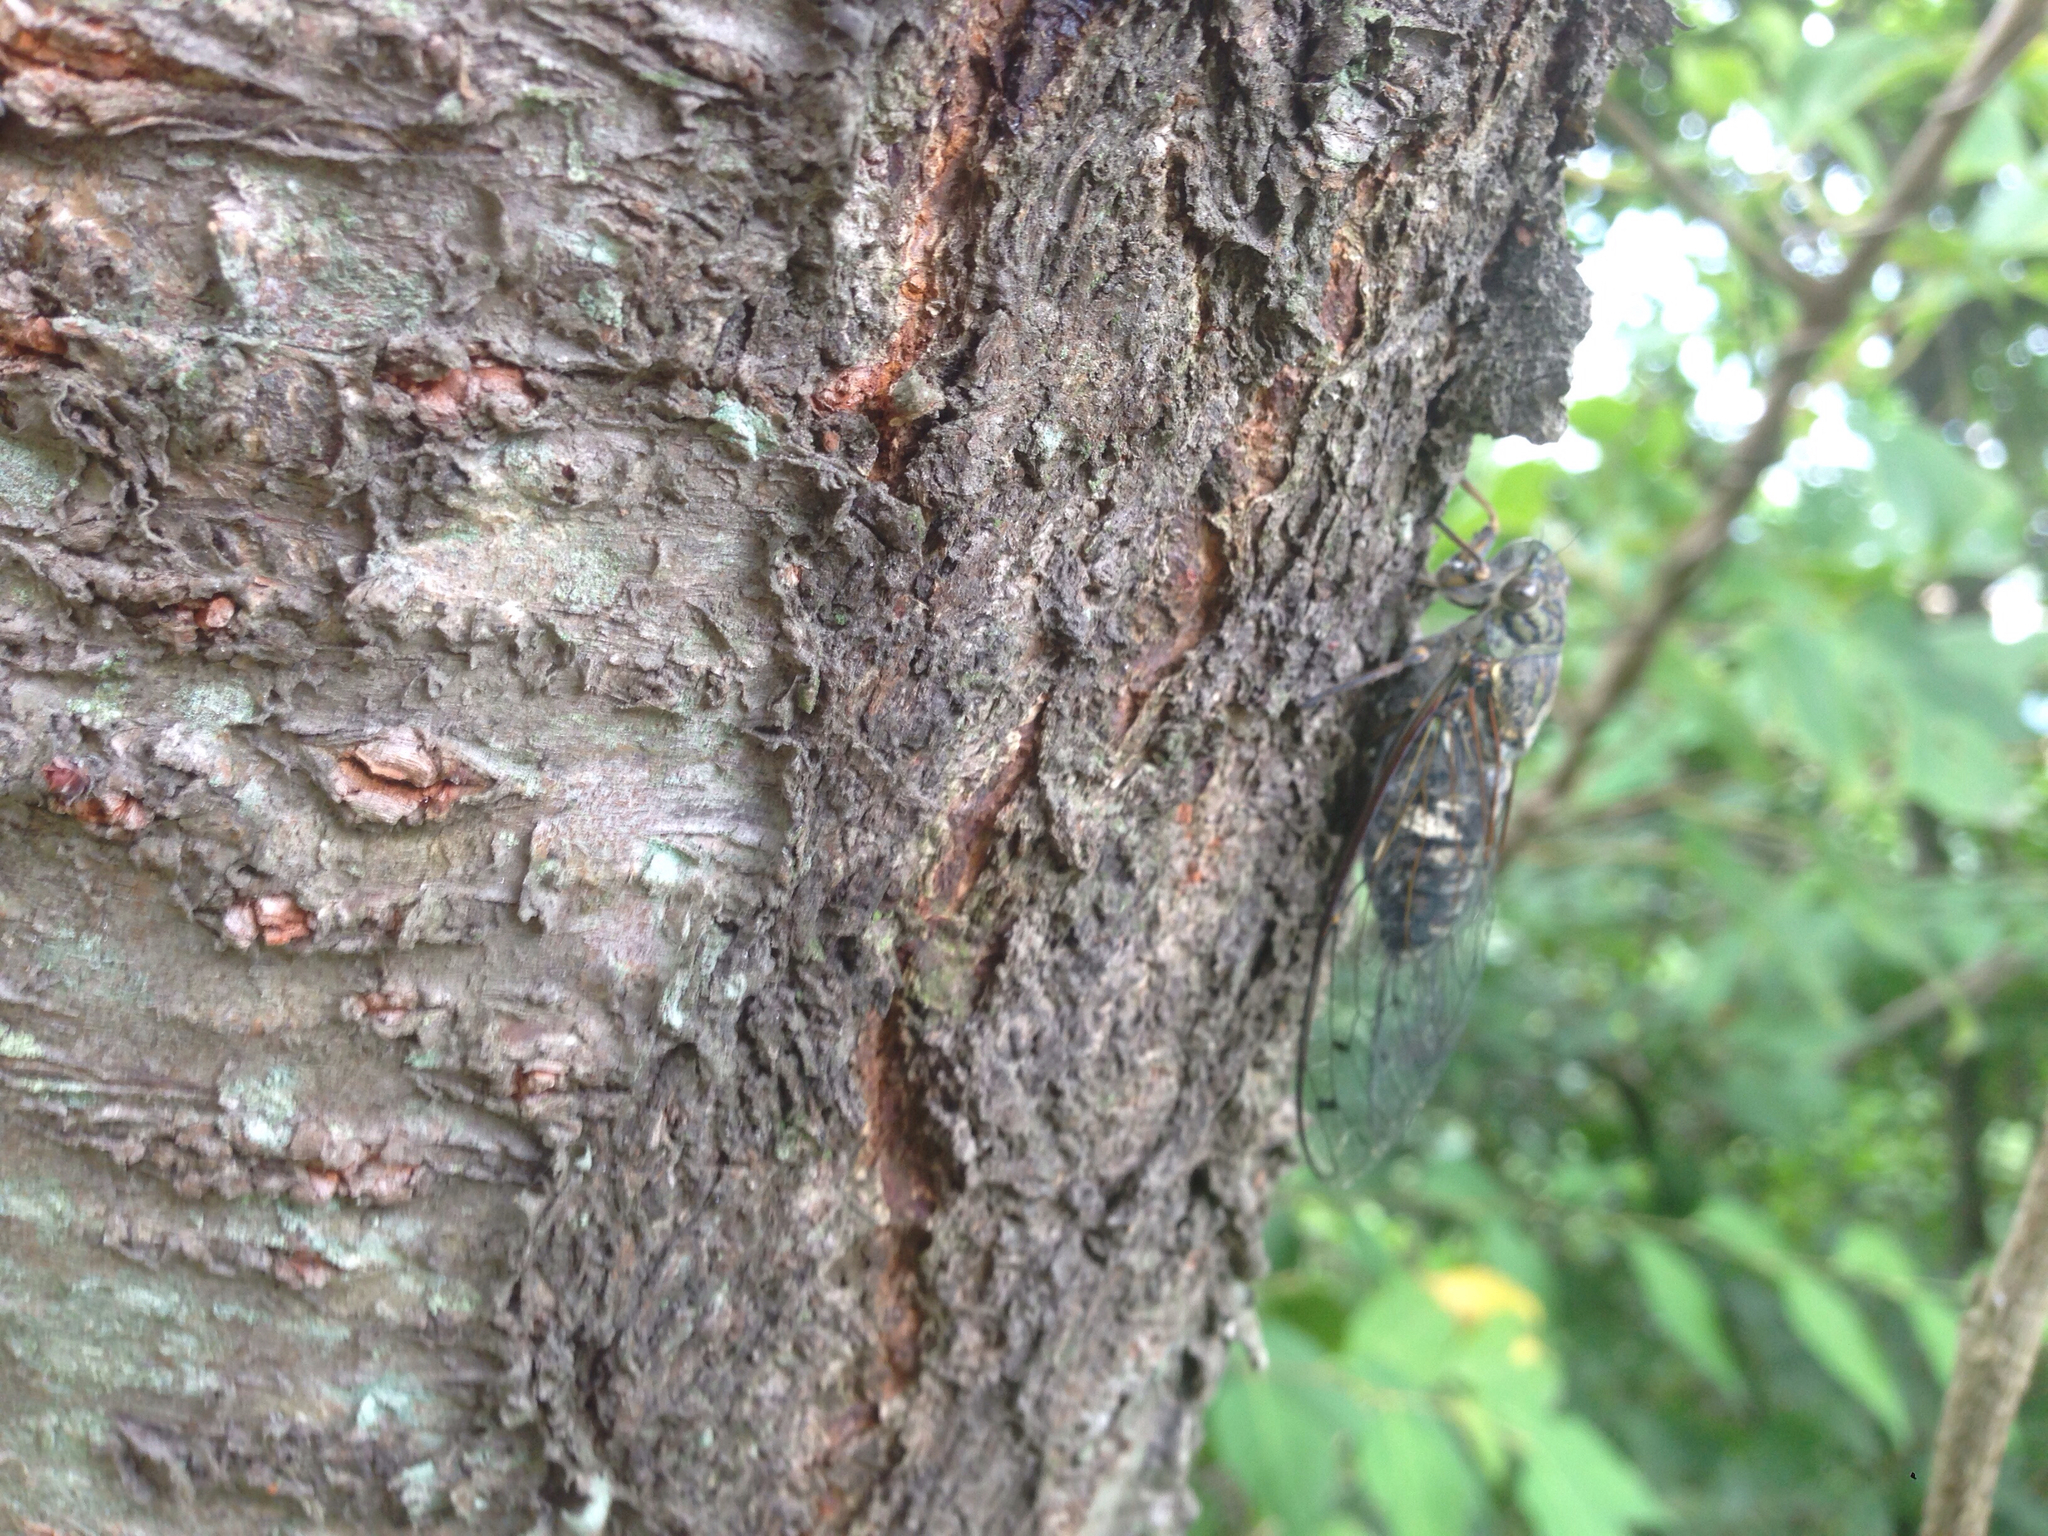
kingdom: Animalia
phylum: Arthropoda
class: Insecta
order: Hemiptera
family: Cicadidae
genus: Meimuna
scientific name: Meimuna opalifera
